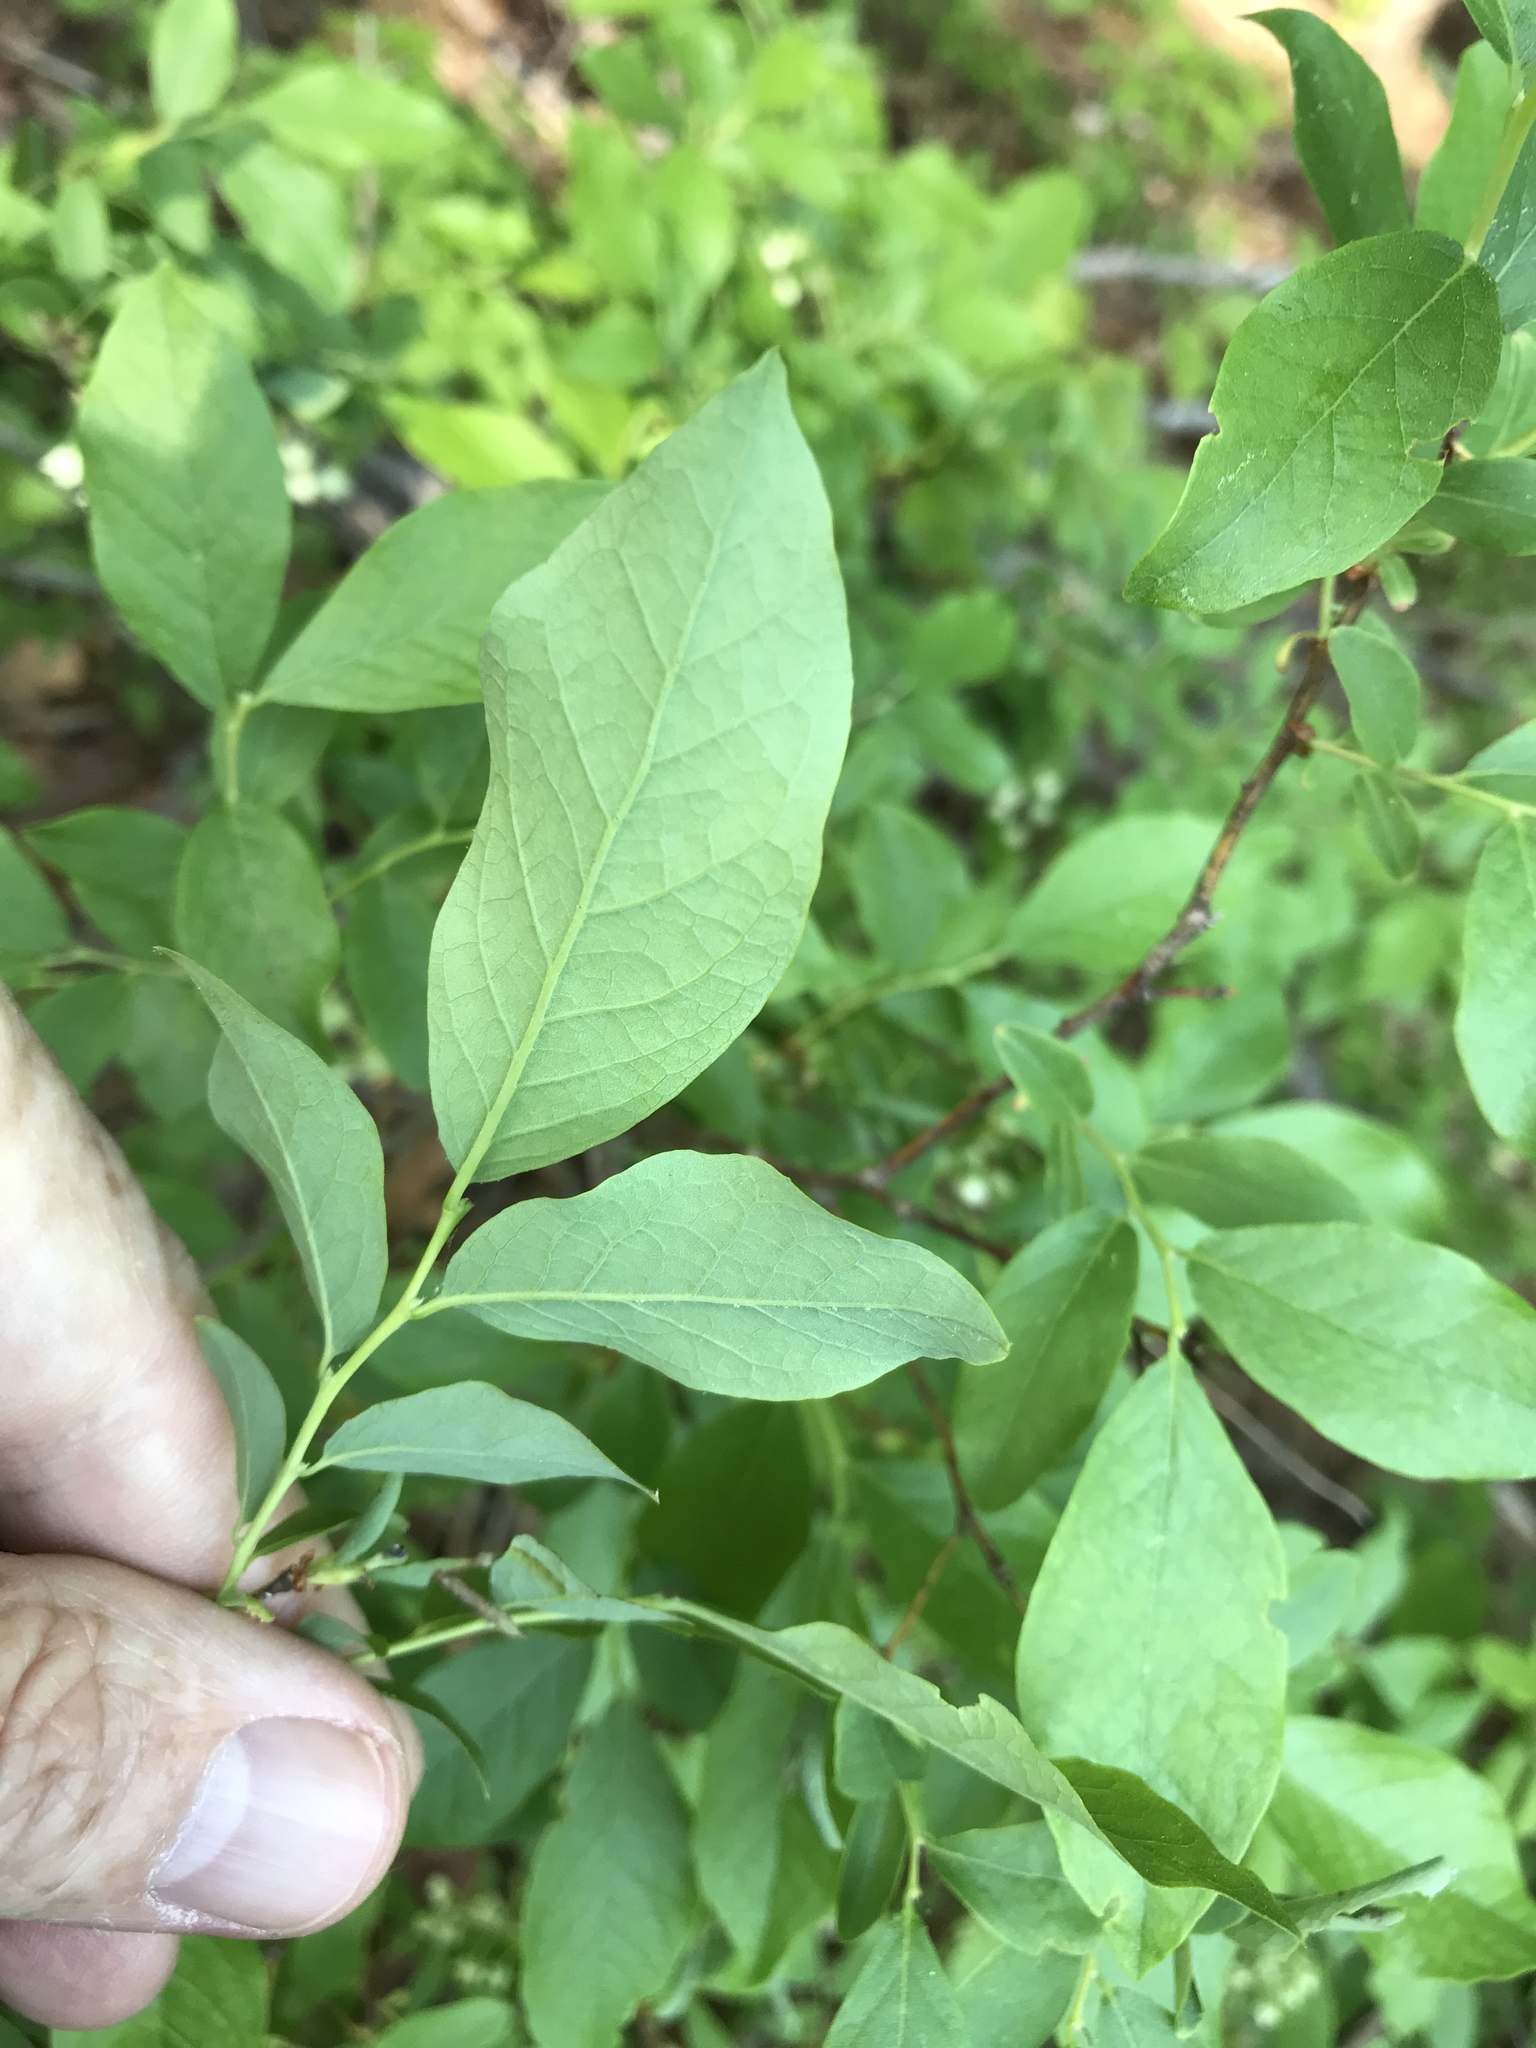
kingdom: Plantae
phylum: Tracheophyta
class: Magnoliopsida
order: Ericales
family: Ericaceae
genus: Vaccinium
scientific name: Vaccinium stamineum
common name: Deerberry
